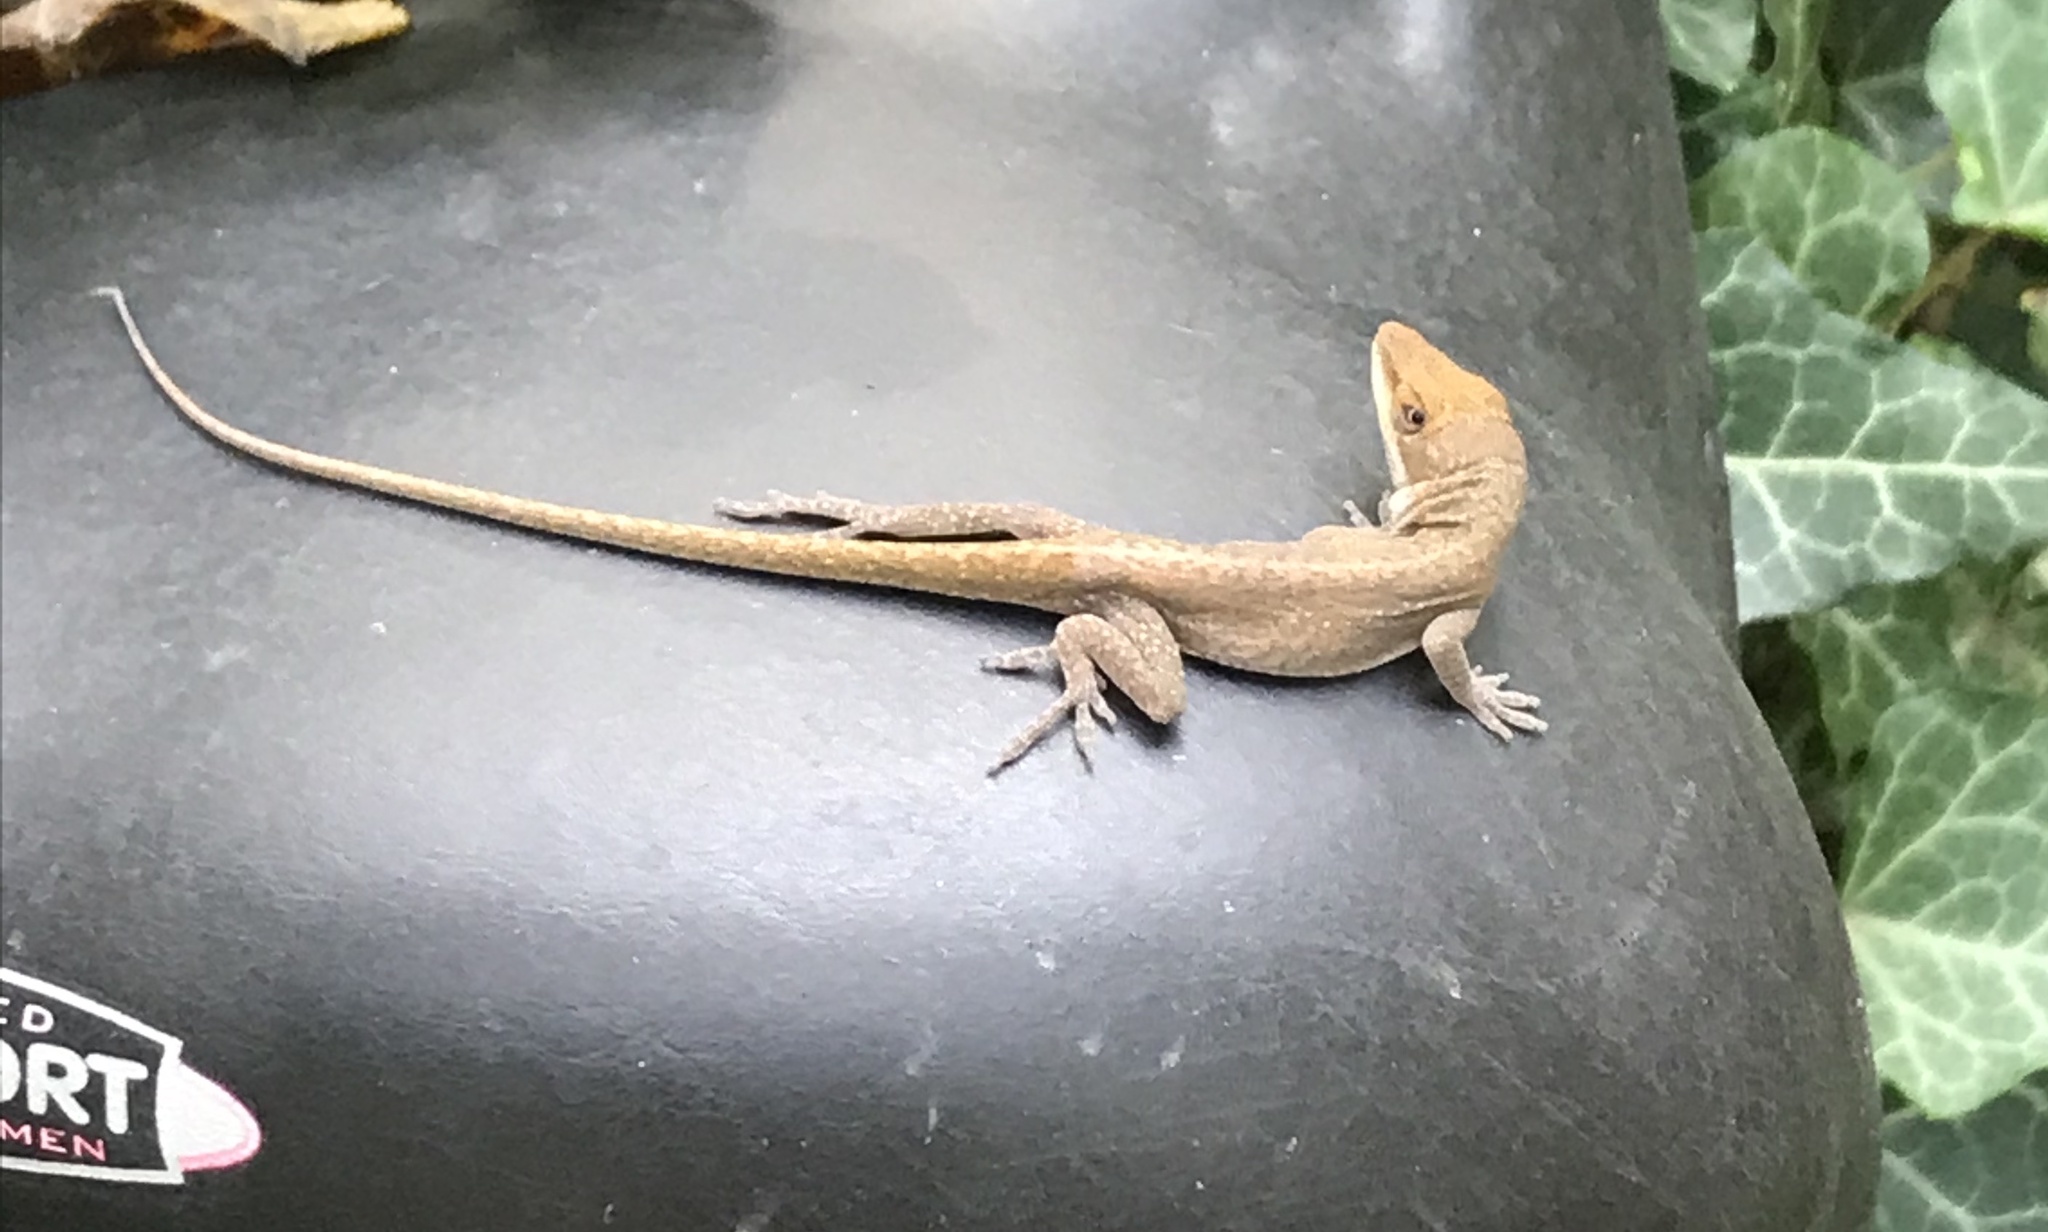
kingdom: Animalia
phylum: Chordata
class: Squamata
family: Dactyloidae
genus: Anolis
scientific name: Anolis carolinensis
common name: Green anole
